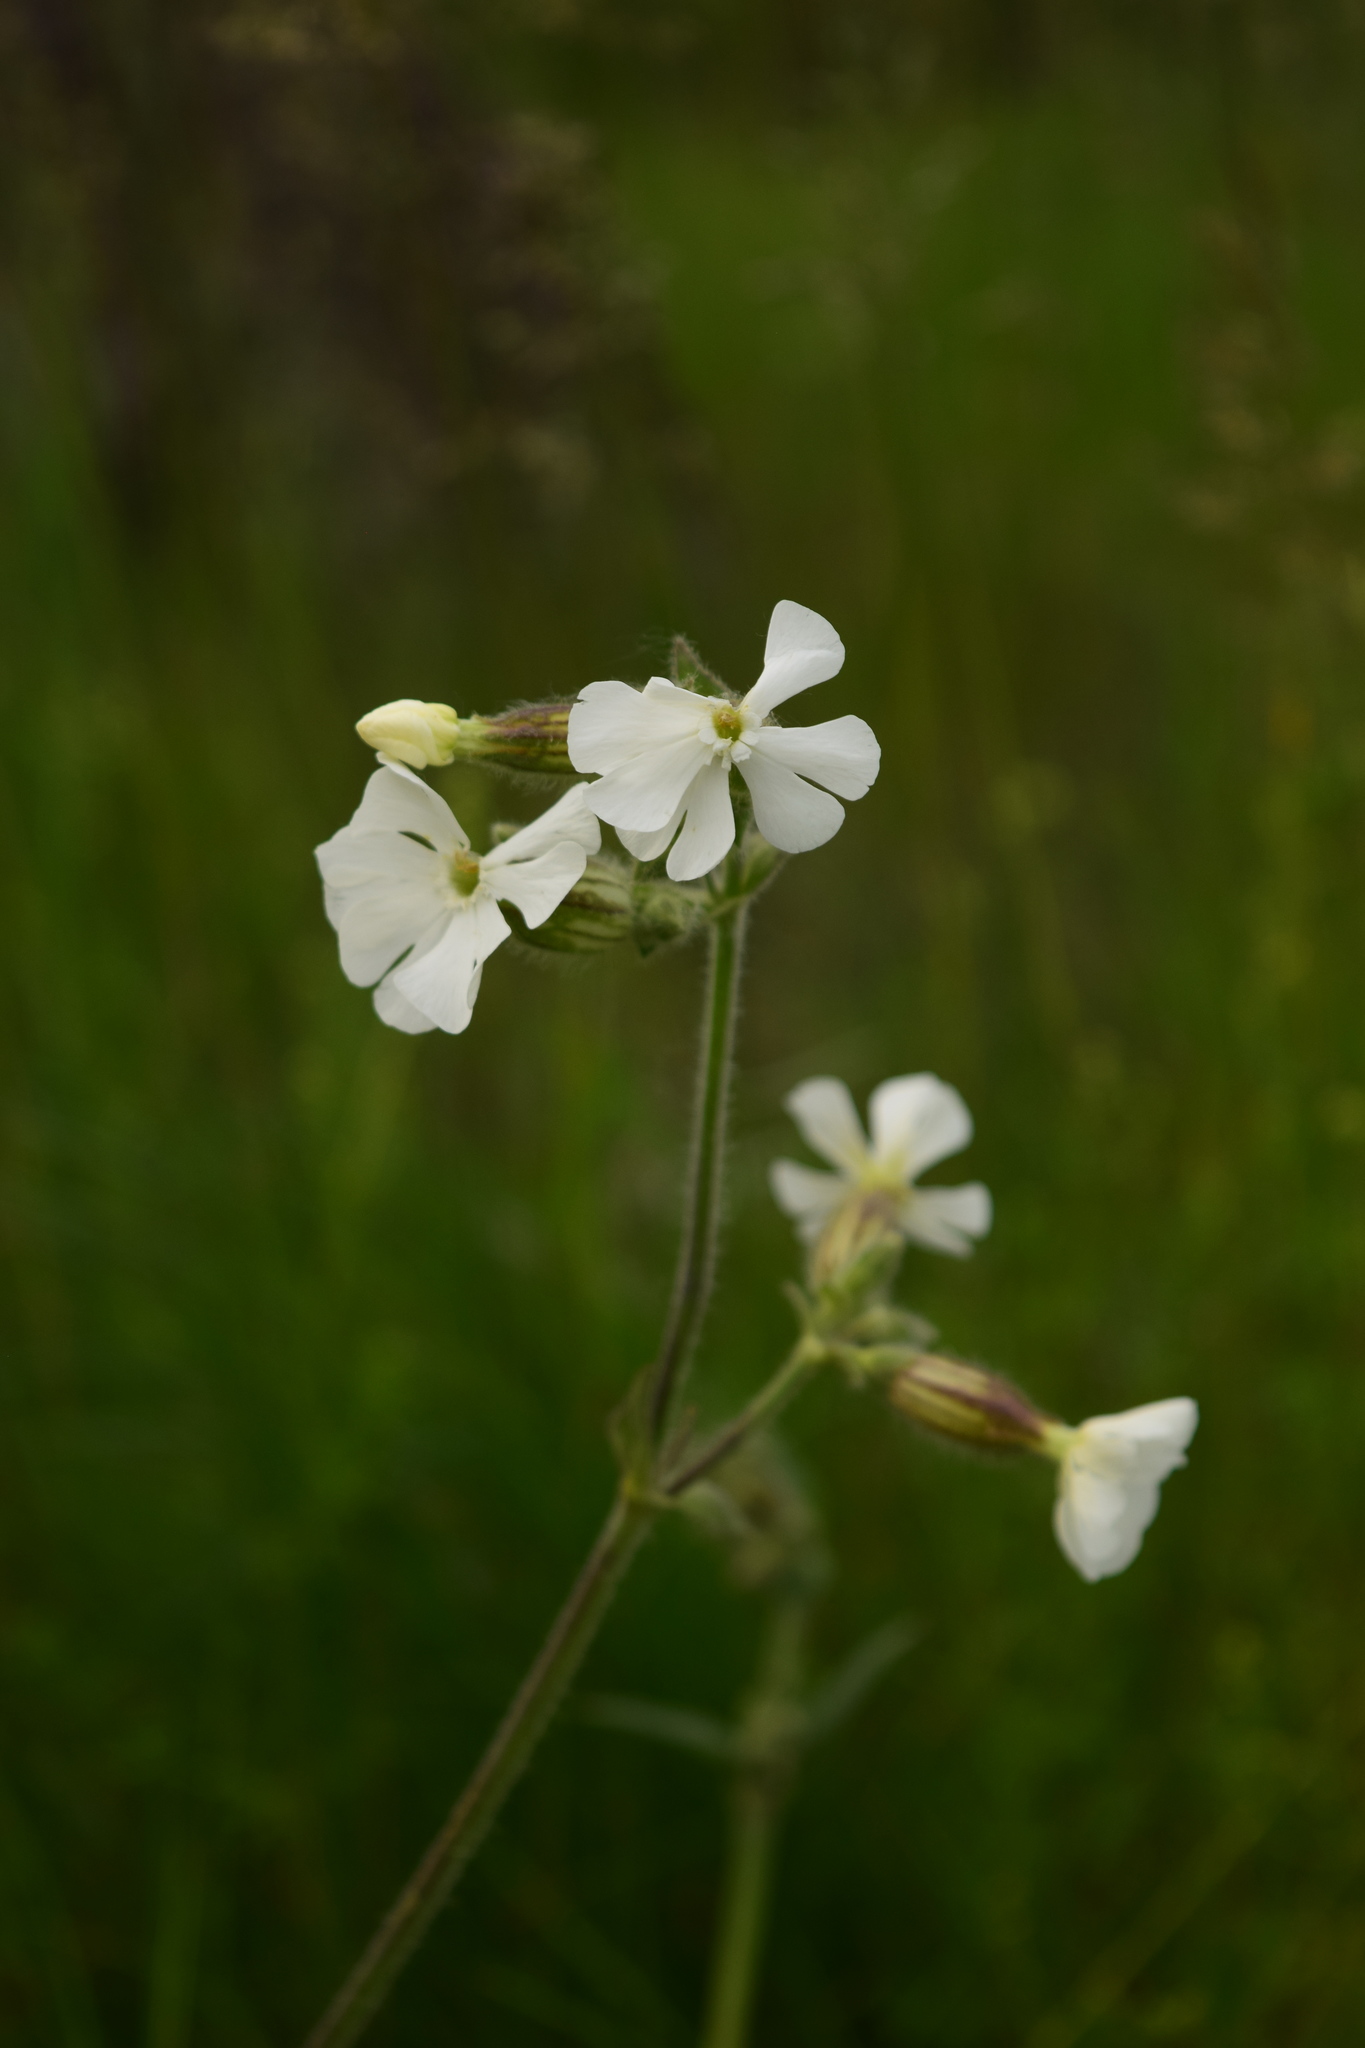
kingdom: Plantae
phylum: Tracheophyta
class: Magnoliopsida
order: Caryophyllales
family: Caryophyllaceae
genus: Silene
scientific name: Silene latifolia
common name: White campion
